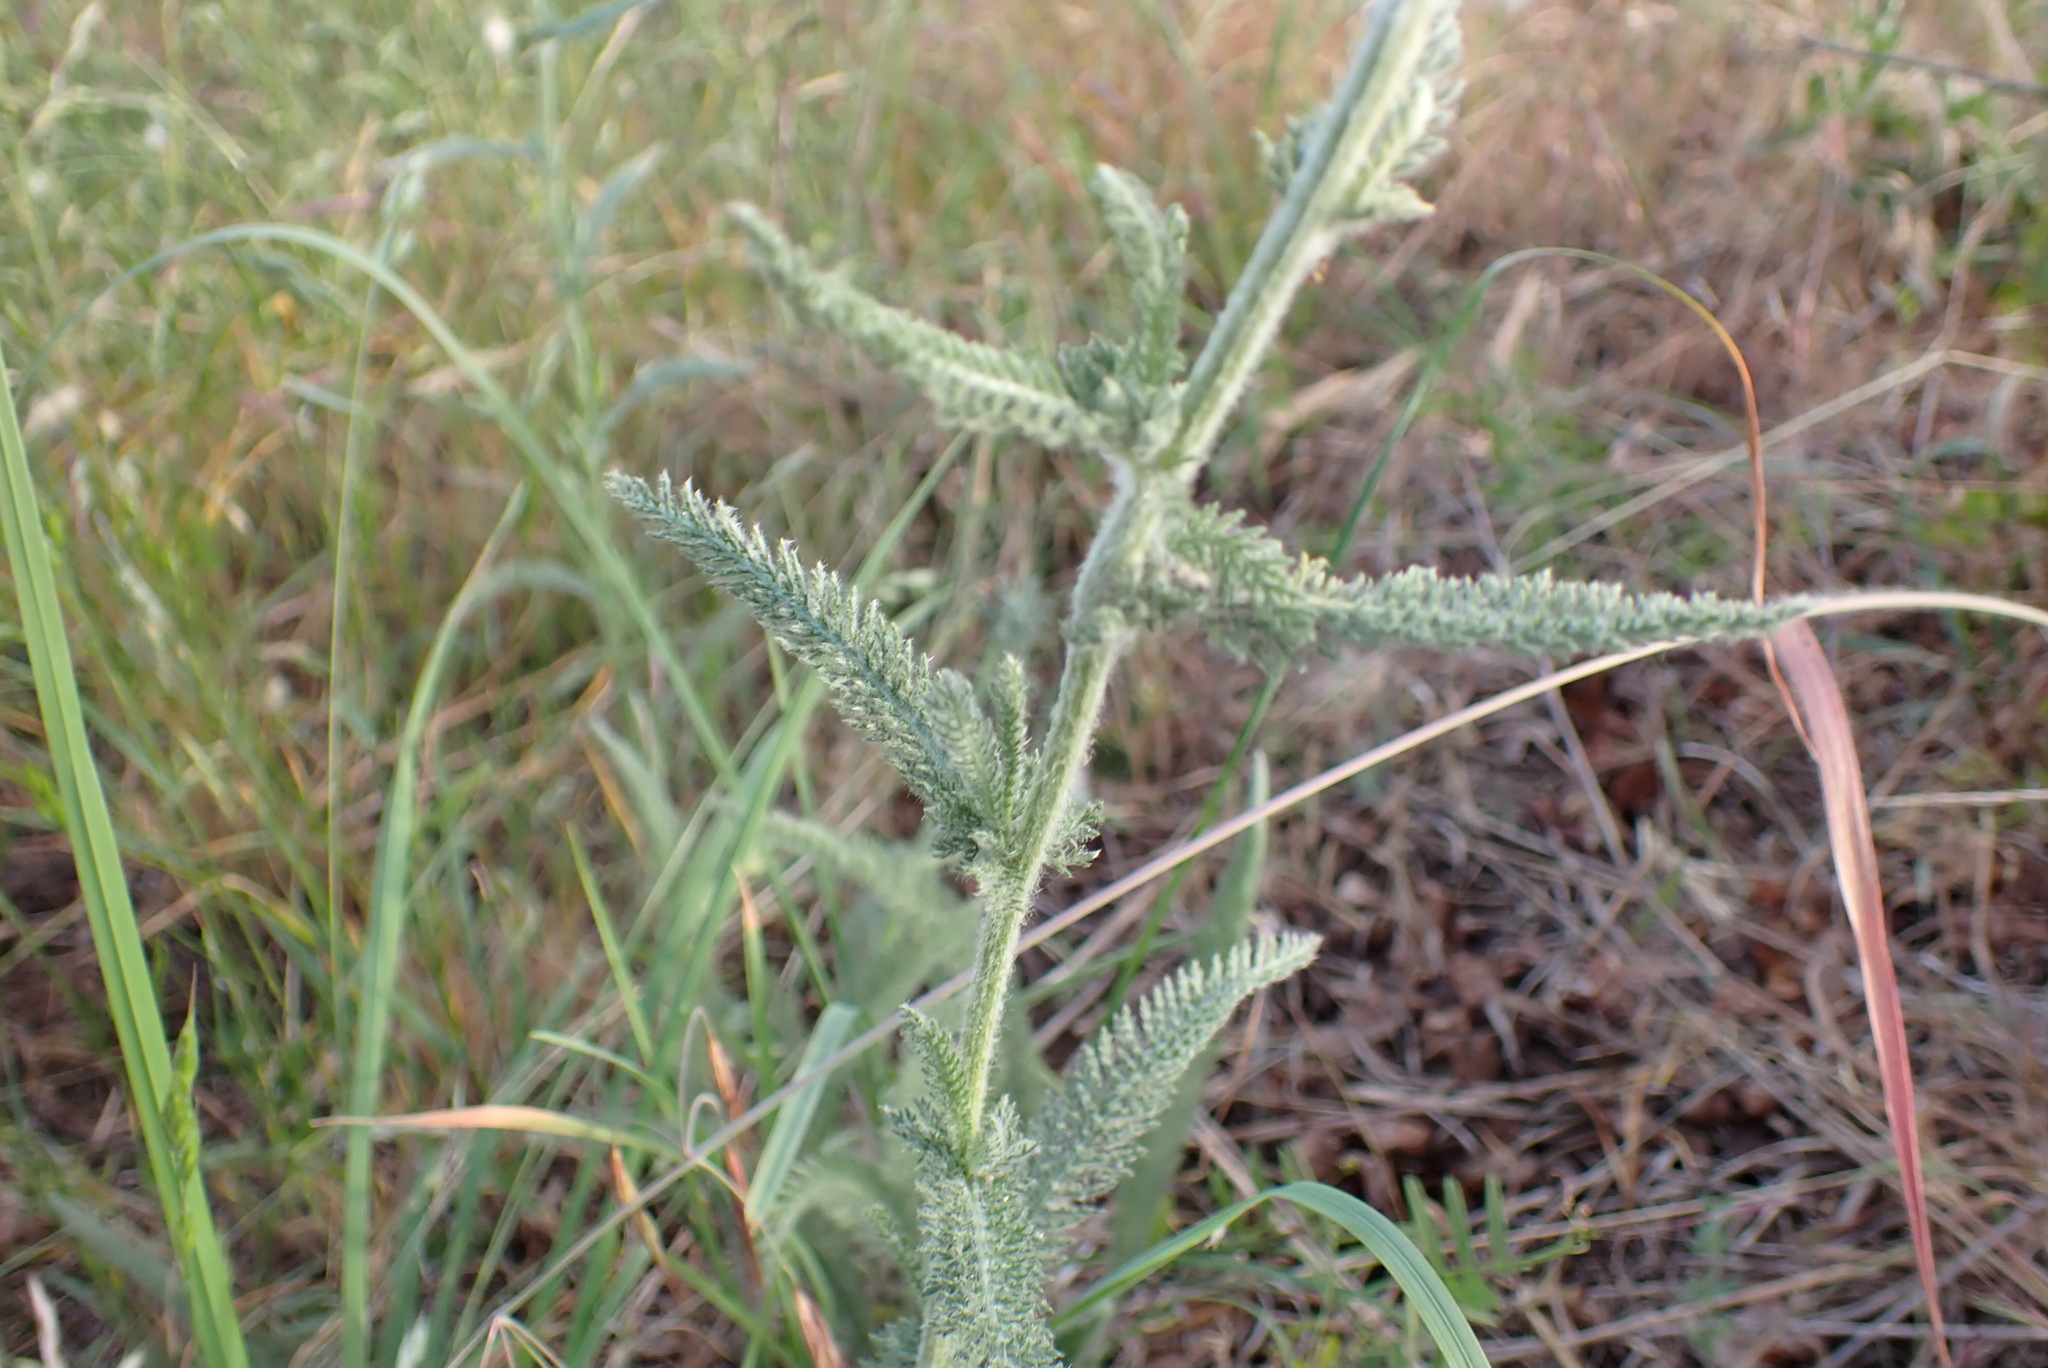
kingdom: Plantae
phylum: Tracheophyta
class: Magnoliopsida
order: Asterales
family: Asteraceae
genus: Achillea
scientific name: Achillea millefolium
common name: Yarrow
